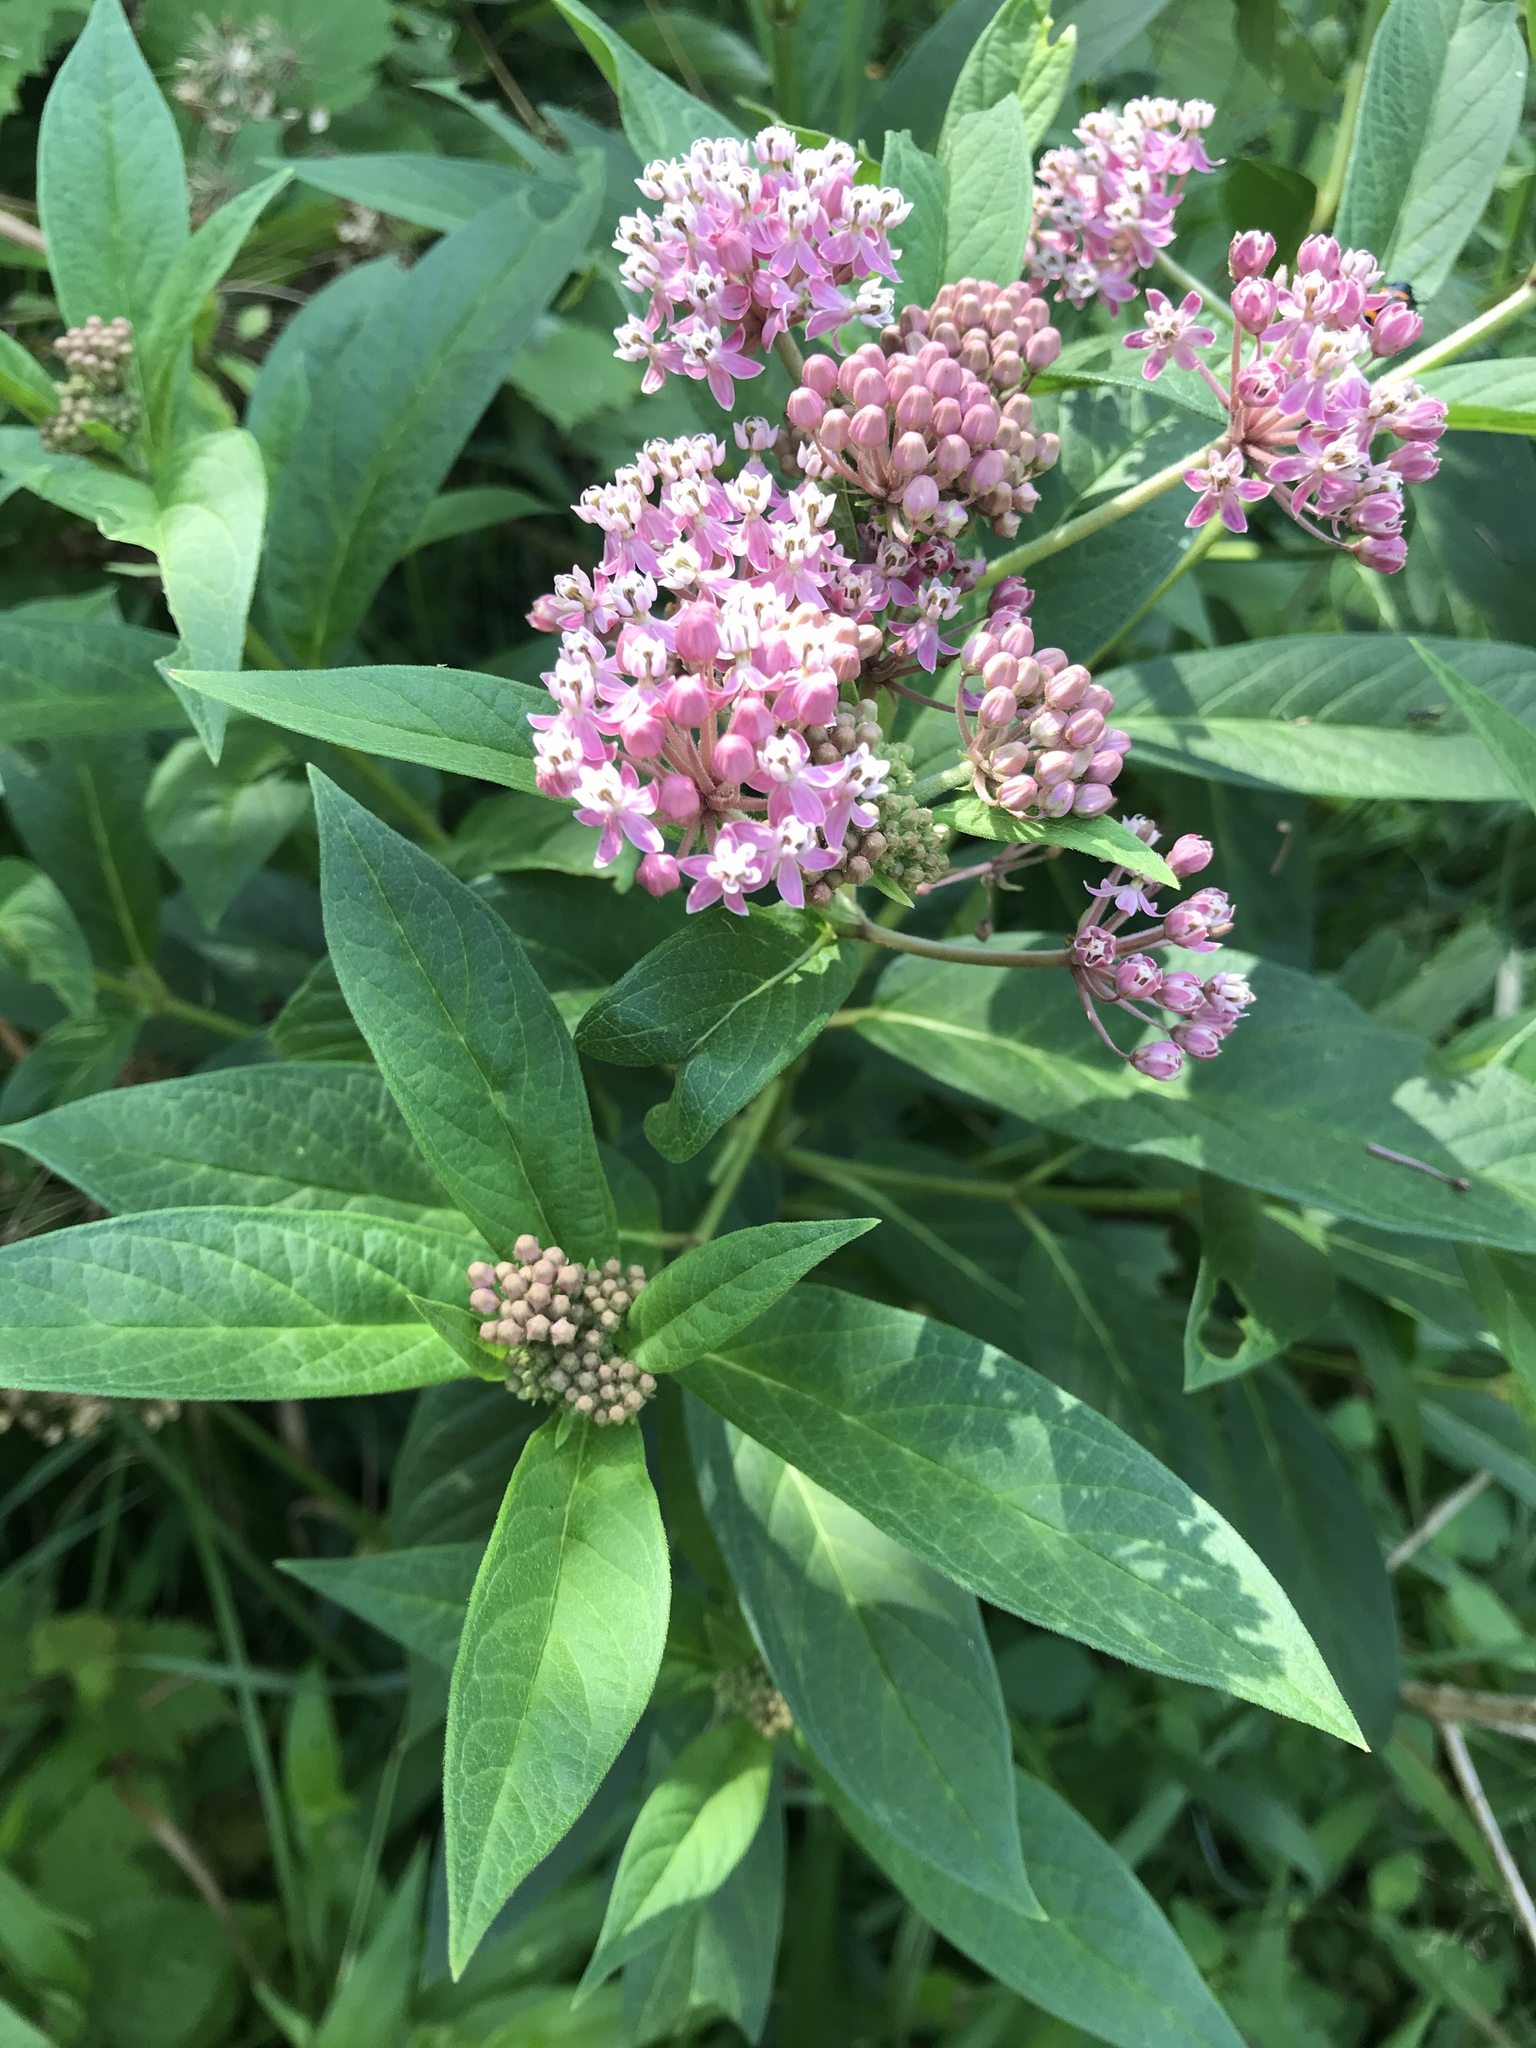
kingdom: Plantae
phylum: Tracheophyta
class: Magnoliopsida
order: Gentianales
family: Apocynaceae
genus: Asclepias
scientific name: Asclepias incarnata
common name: Swamp milkweed
